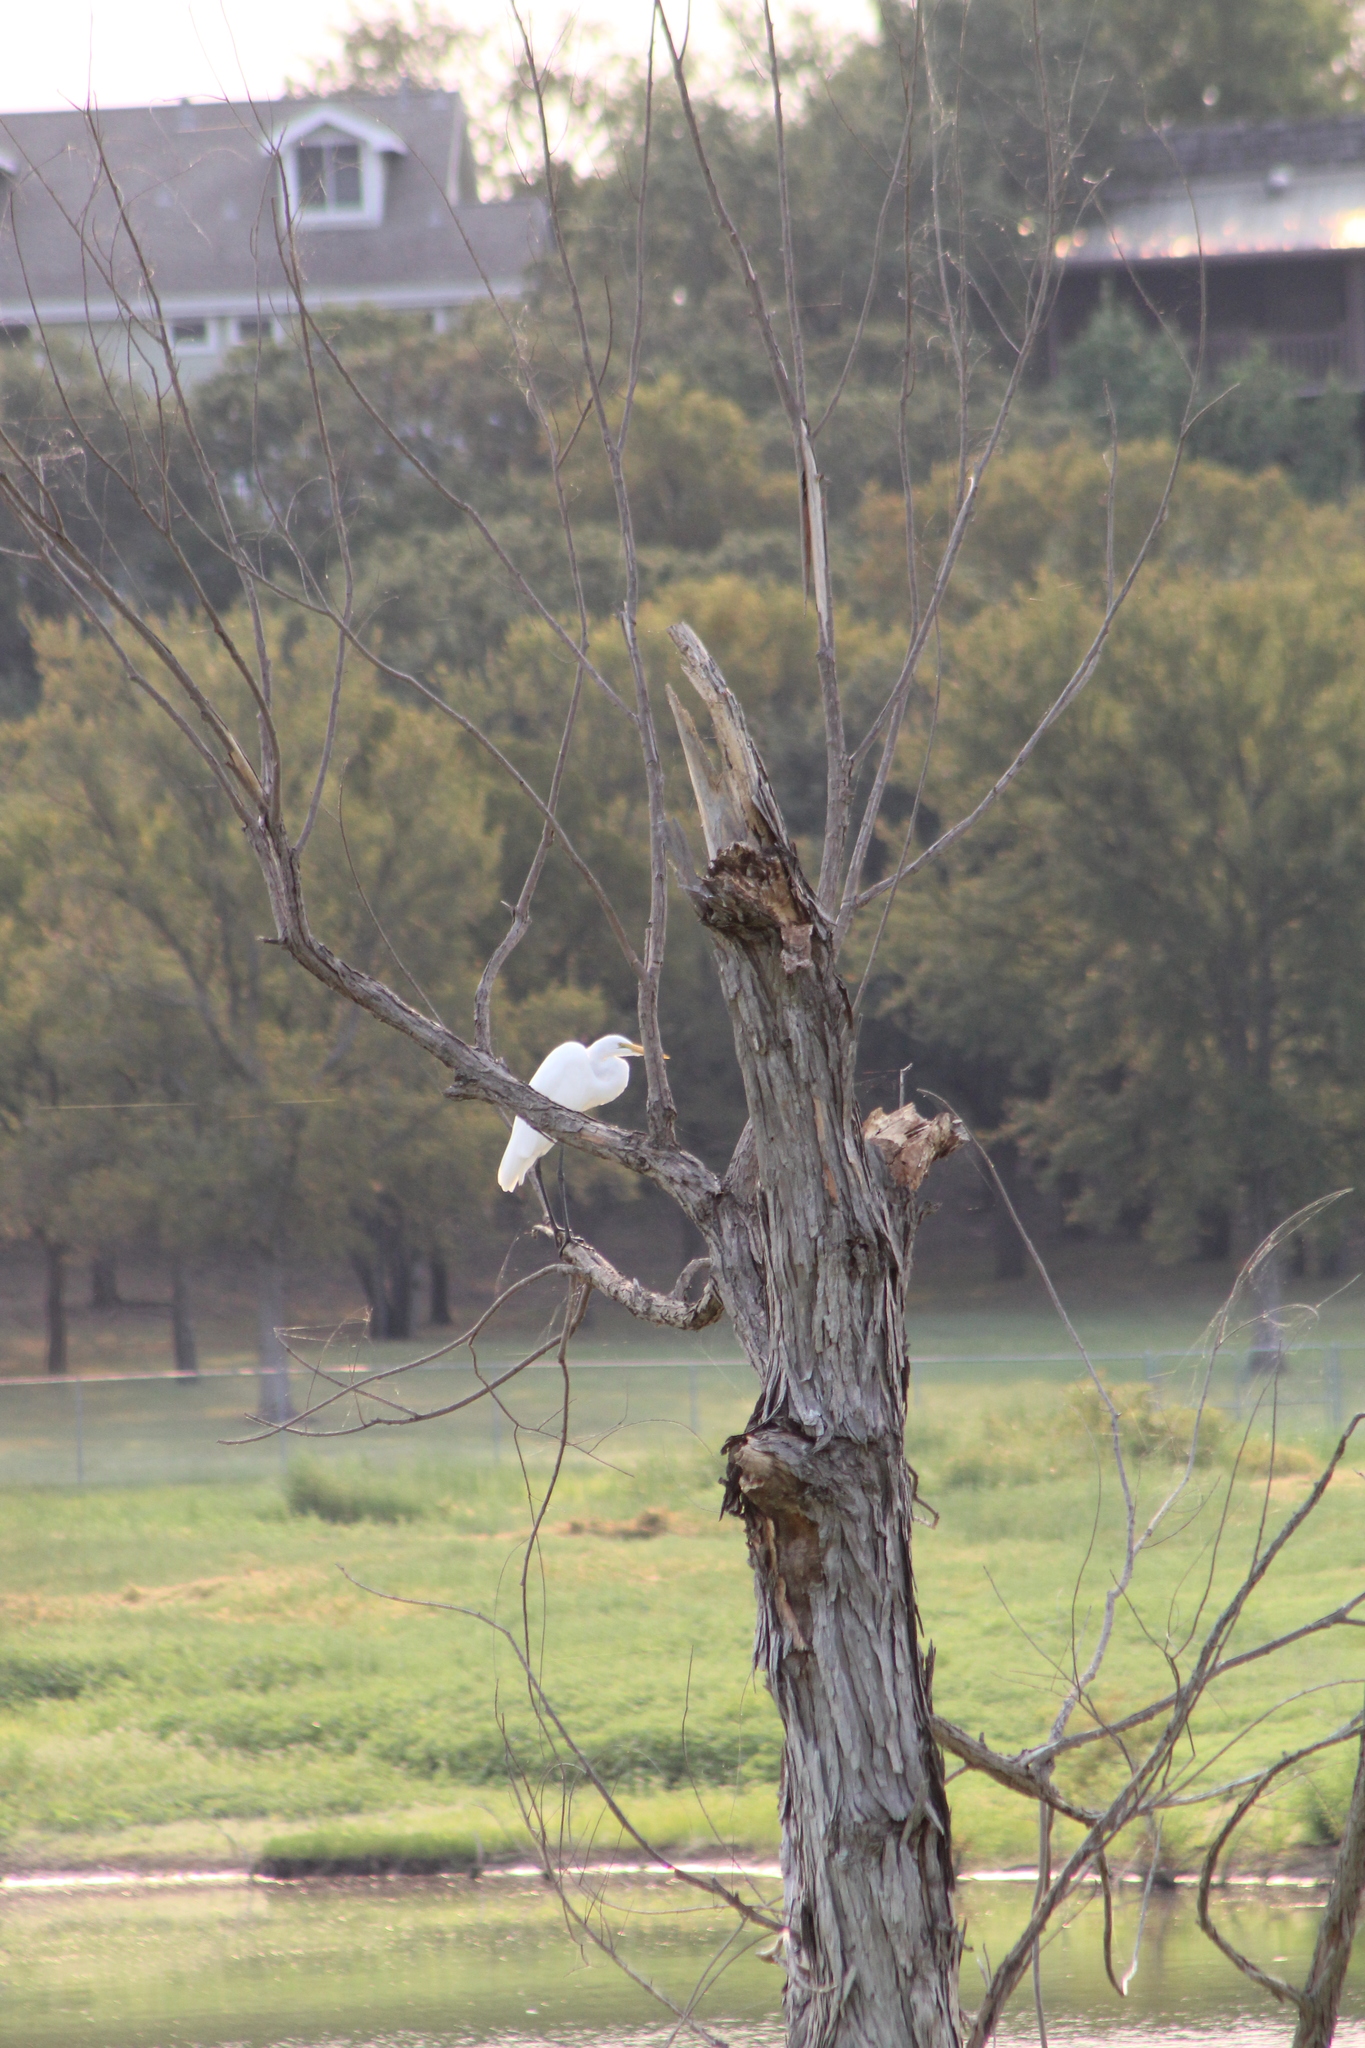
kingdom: Animalia
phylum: Chordata
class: Aves
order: Pelecaniformes
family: Ardeidae
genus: Ardea
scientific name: Ardea alba
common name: Great egret
